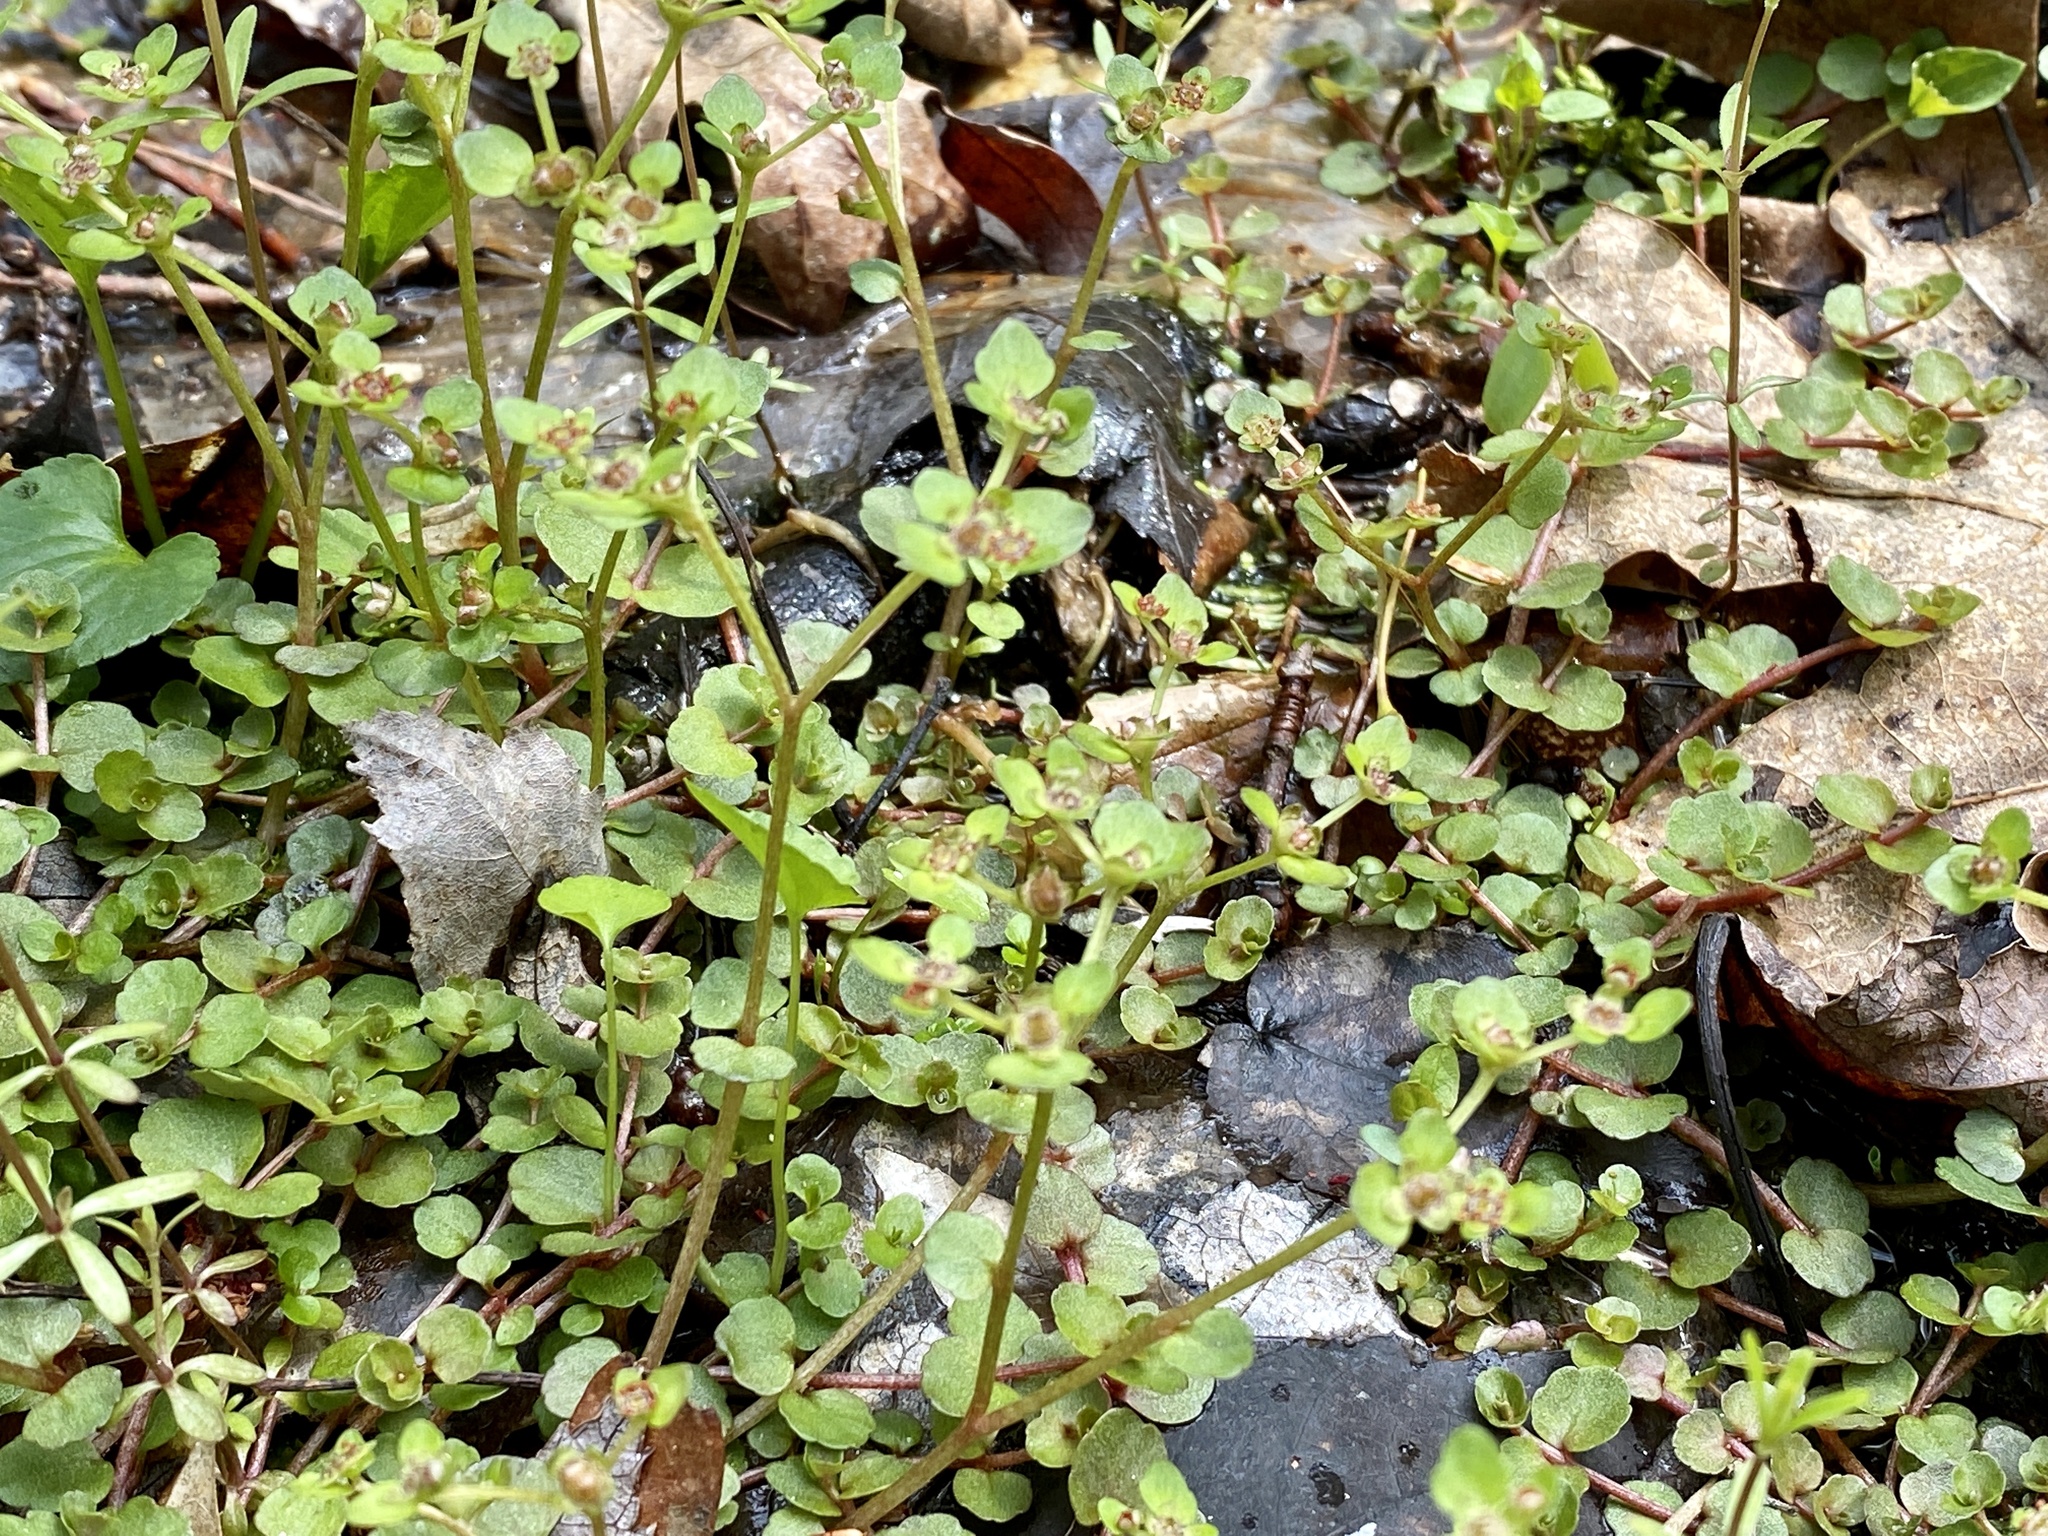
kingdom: Plantae
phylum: Tracheophyta
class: Magnoliopsida
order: Saxifragales
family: Saxifragaceae
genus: Chrysosplenium
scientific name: Chrysosplenium americanum
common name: American golden-saxifrage
